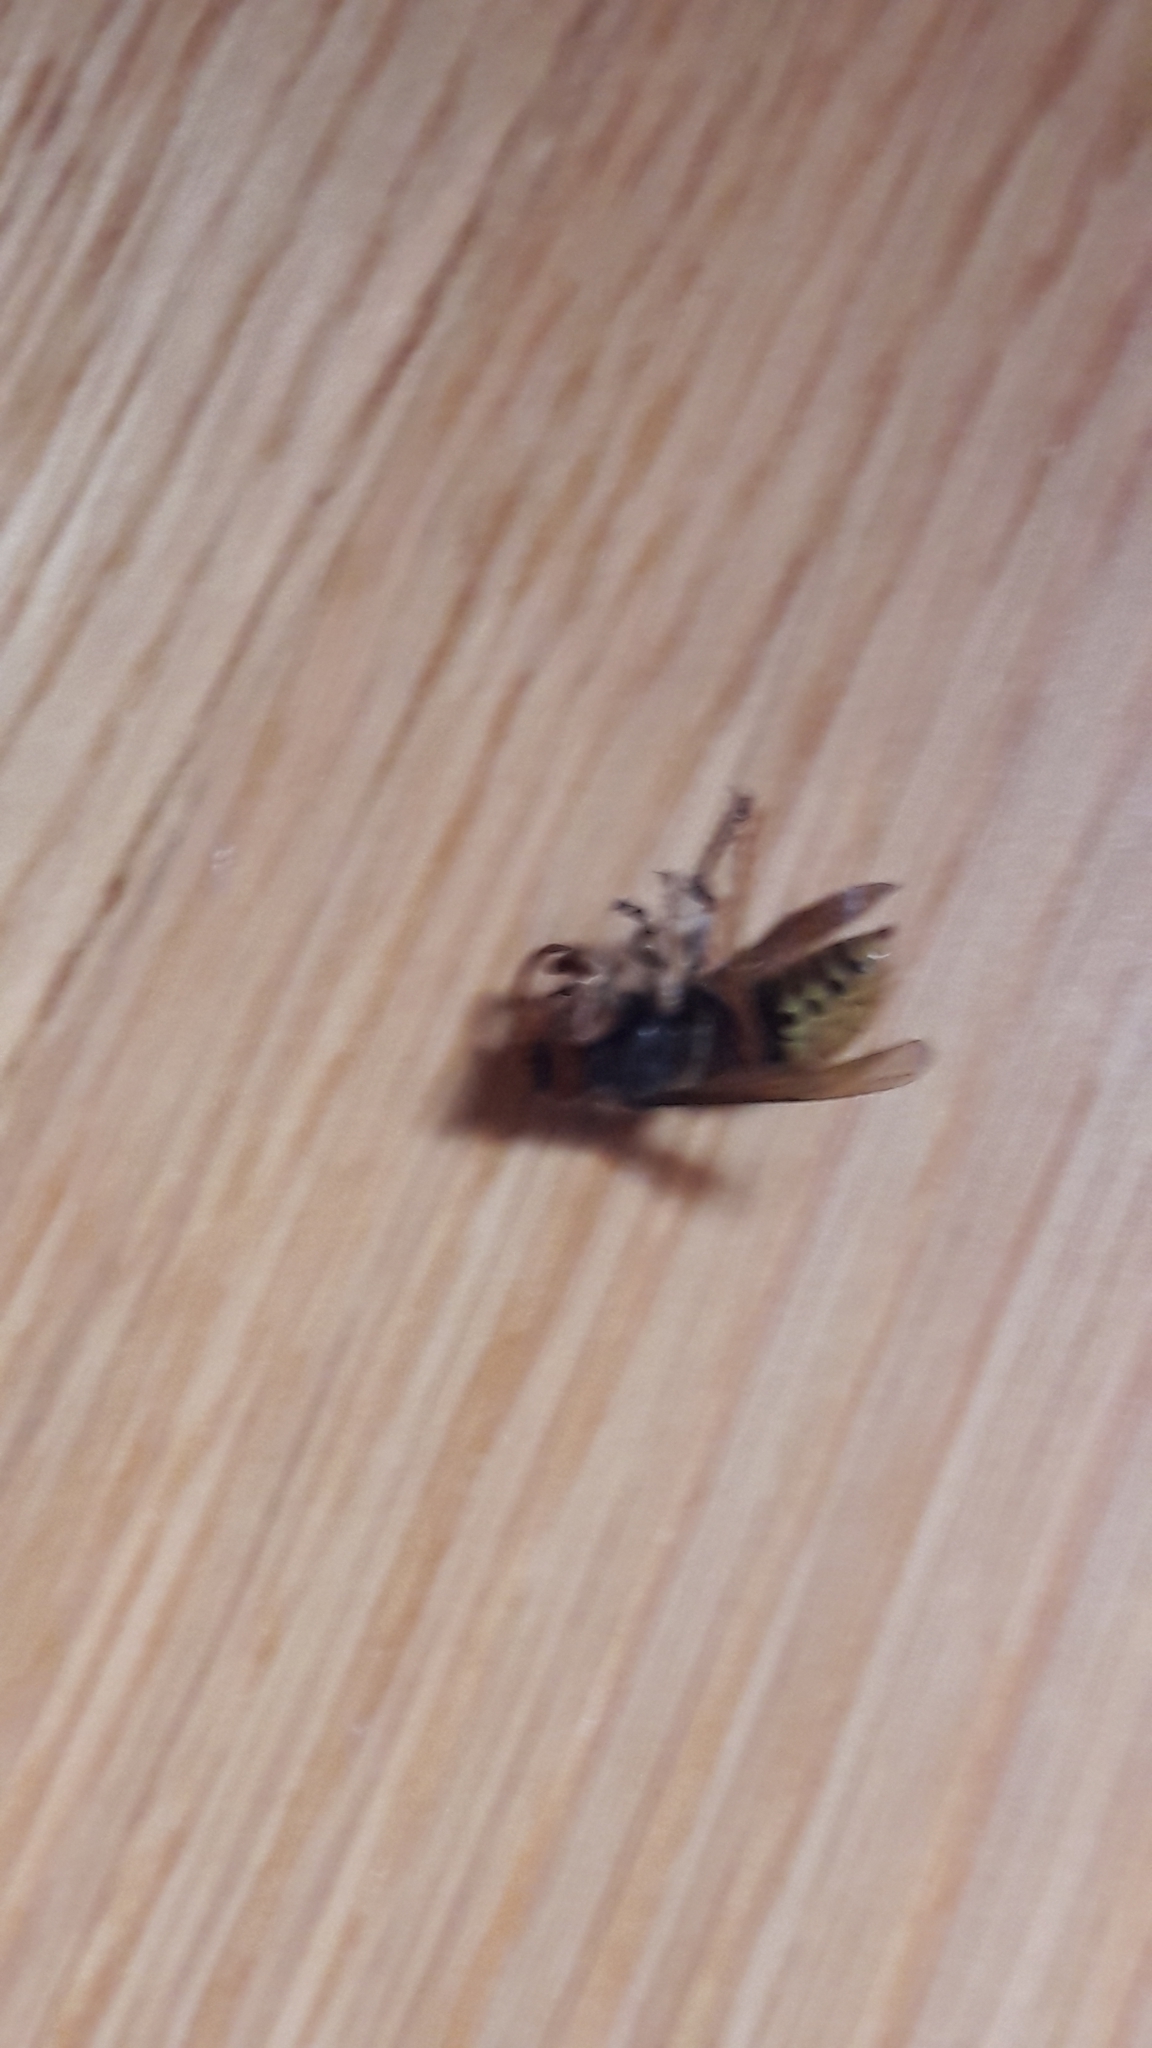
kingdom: Animalia
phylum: Arthropoda
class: Insecta
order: Hymenoptera
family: Vespidae
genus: Vespa
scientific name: Vespa crabro
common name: Hornet
